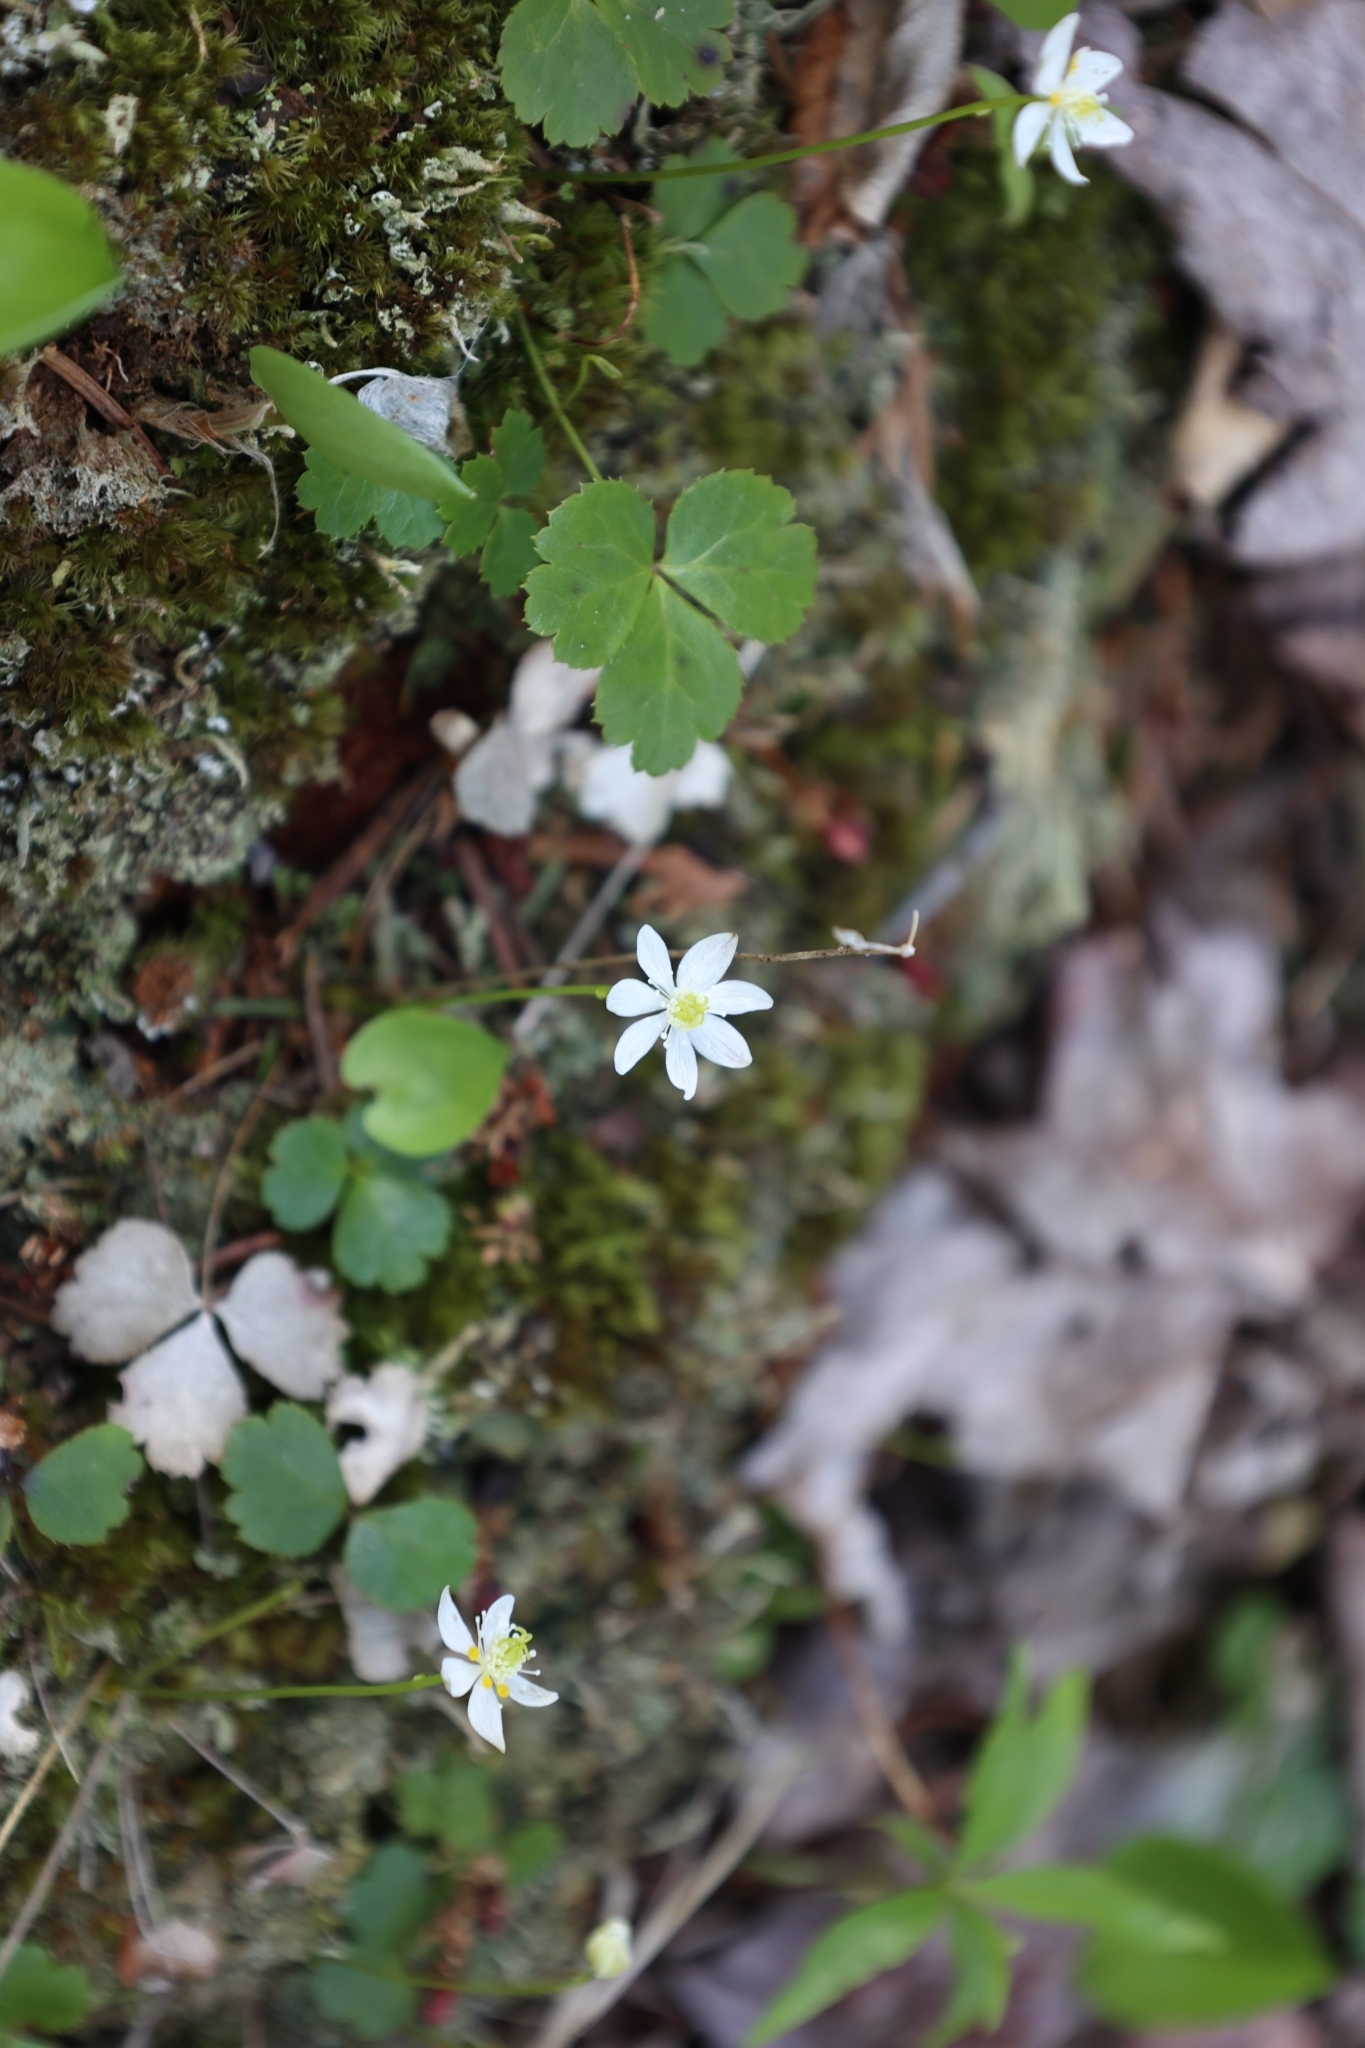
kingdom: Plantae
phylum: Tracheophyta
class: Magnoliopsida
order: Ranunculales
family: Ranunculaceae
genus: Coptis
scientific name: Coptis trifolia
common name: Canker-root
